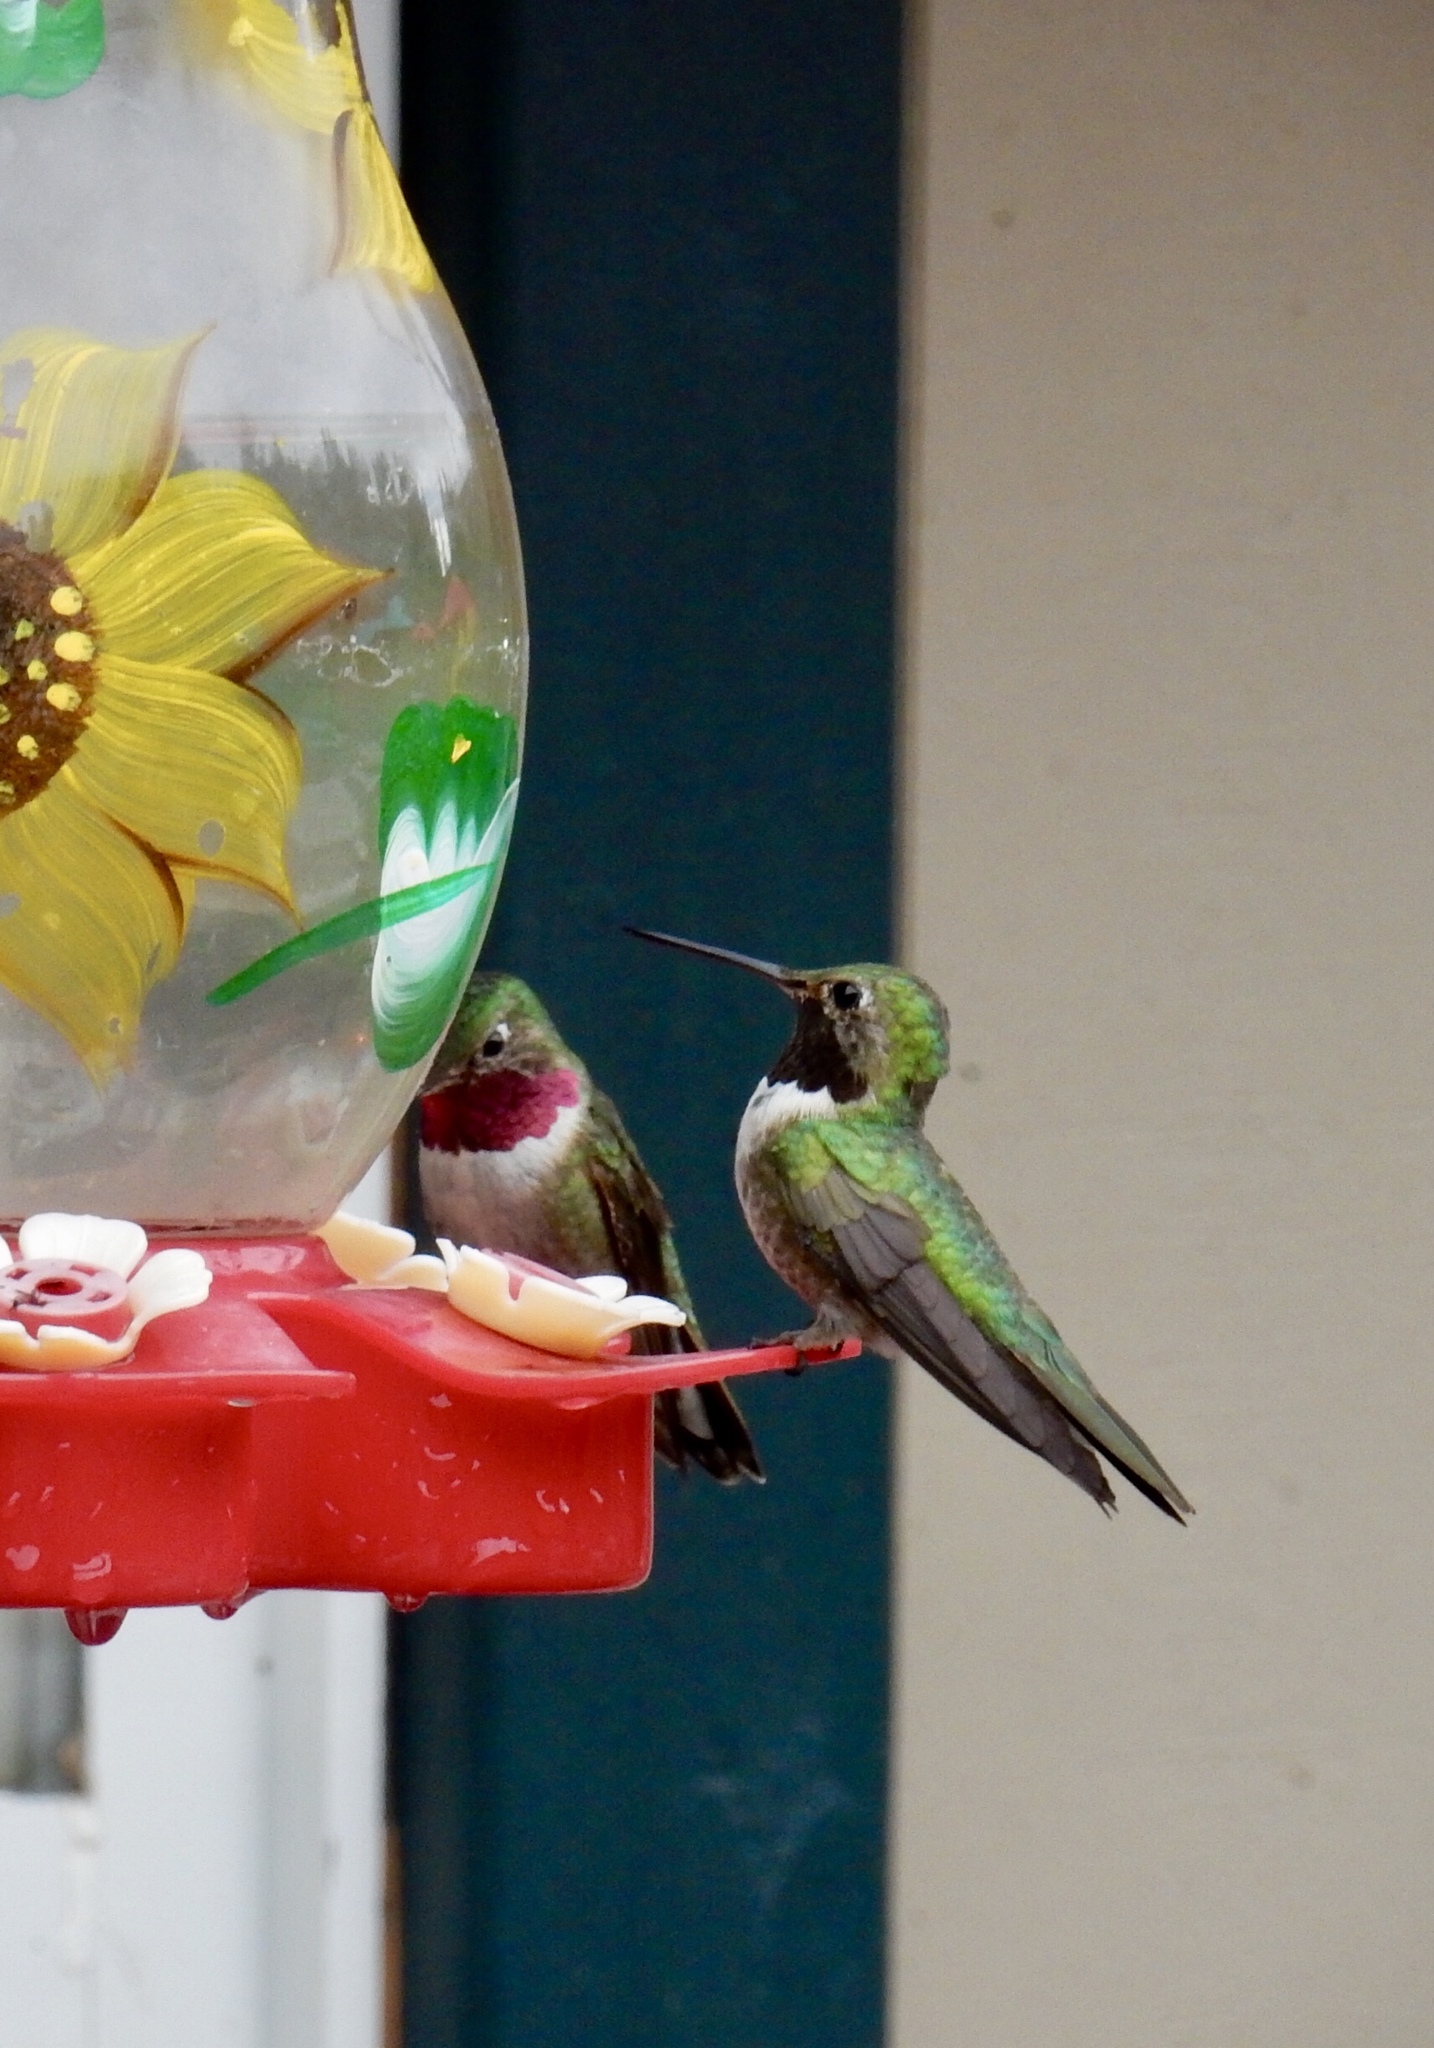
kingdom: Animalia
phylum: Chordata
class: Aves
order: Apodiformes
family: Trochilidae
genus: Selasphorus
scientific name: Selasphorus platycercus
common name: Broad-tailed hummingbird
